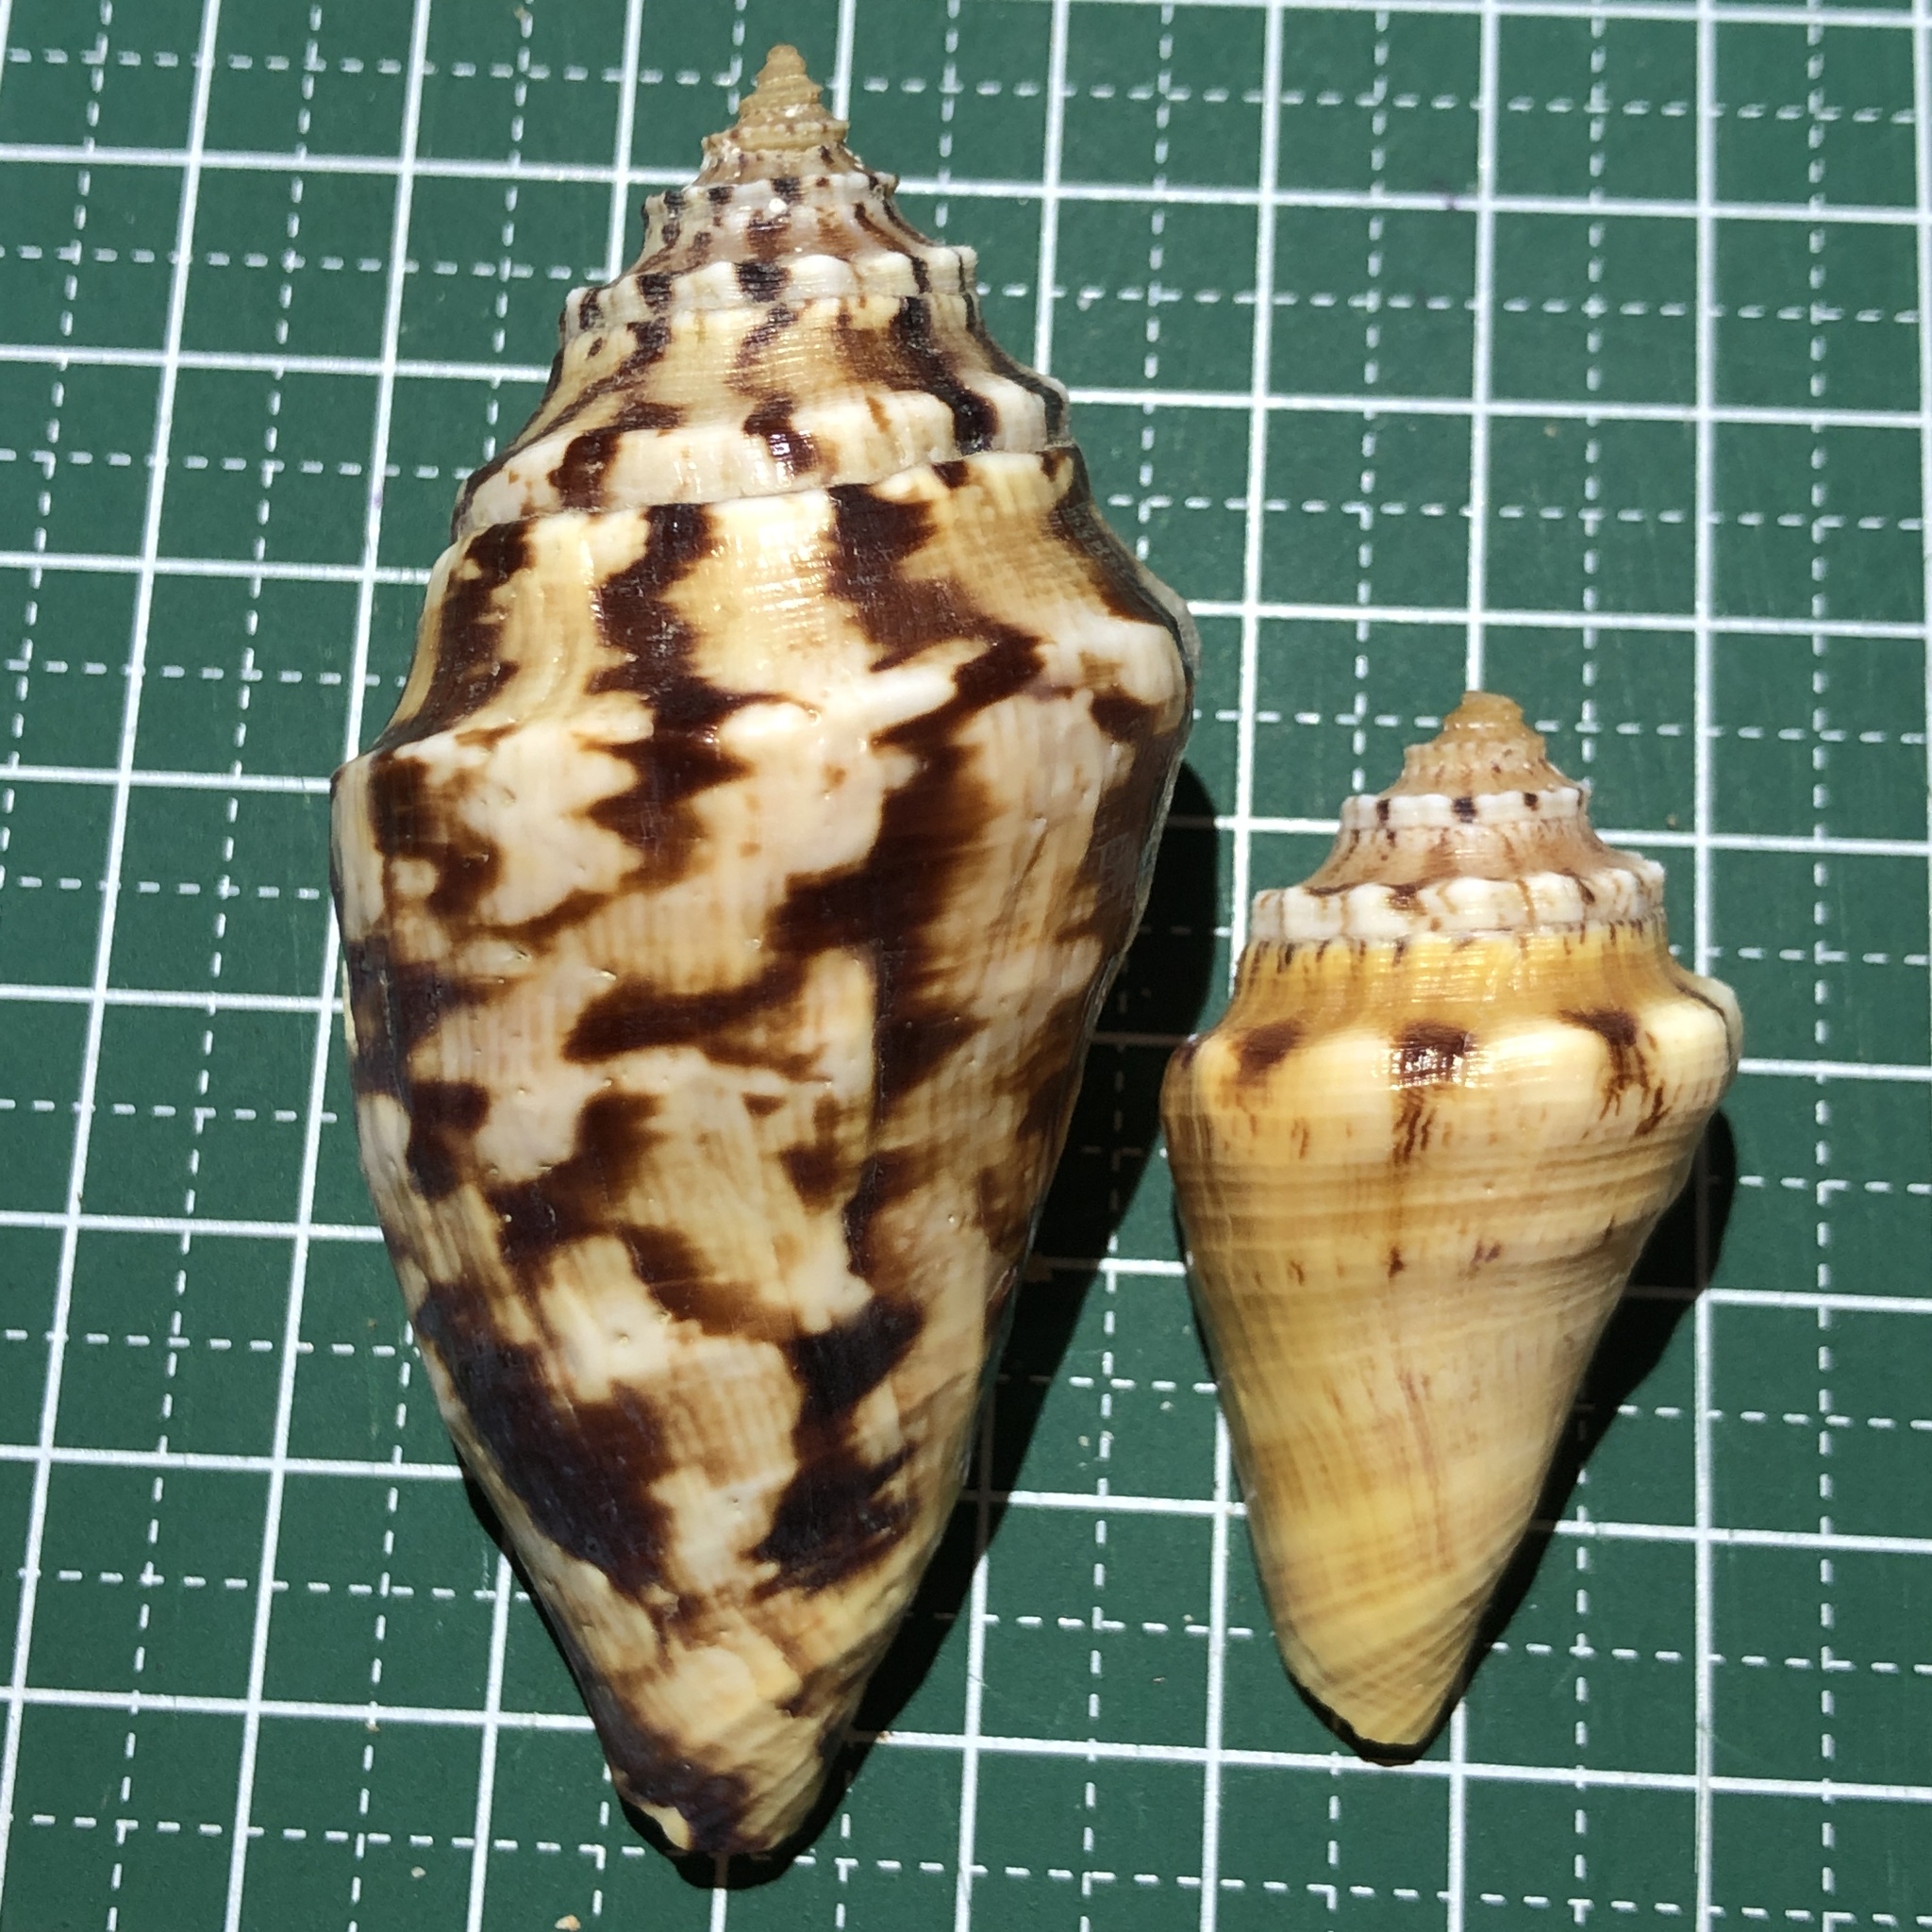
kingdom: Animalia
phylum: Mollusca
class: Gastropoda
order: Littorinimorpha
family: Strombidae
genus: Lambis
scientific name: Lambis lambis
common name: Common spider conch
